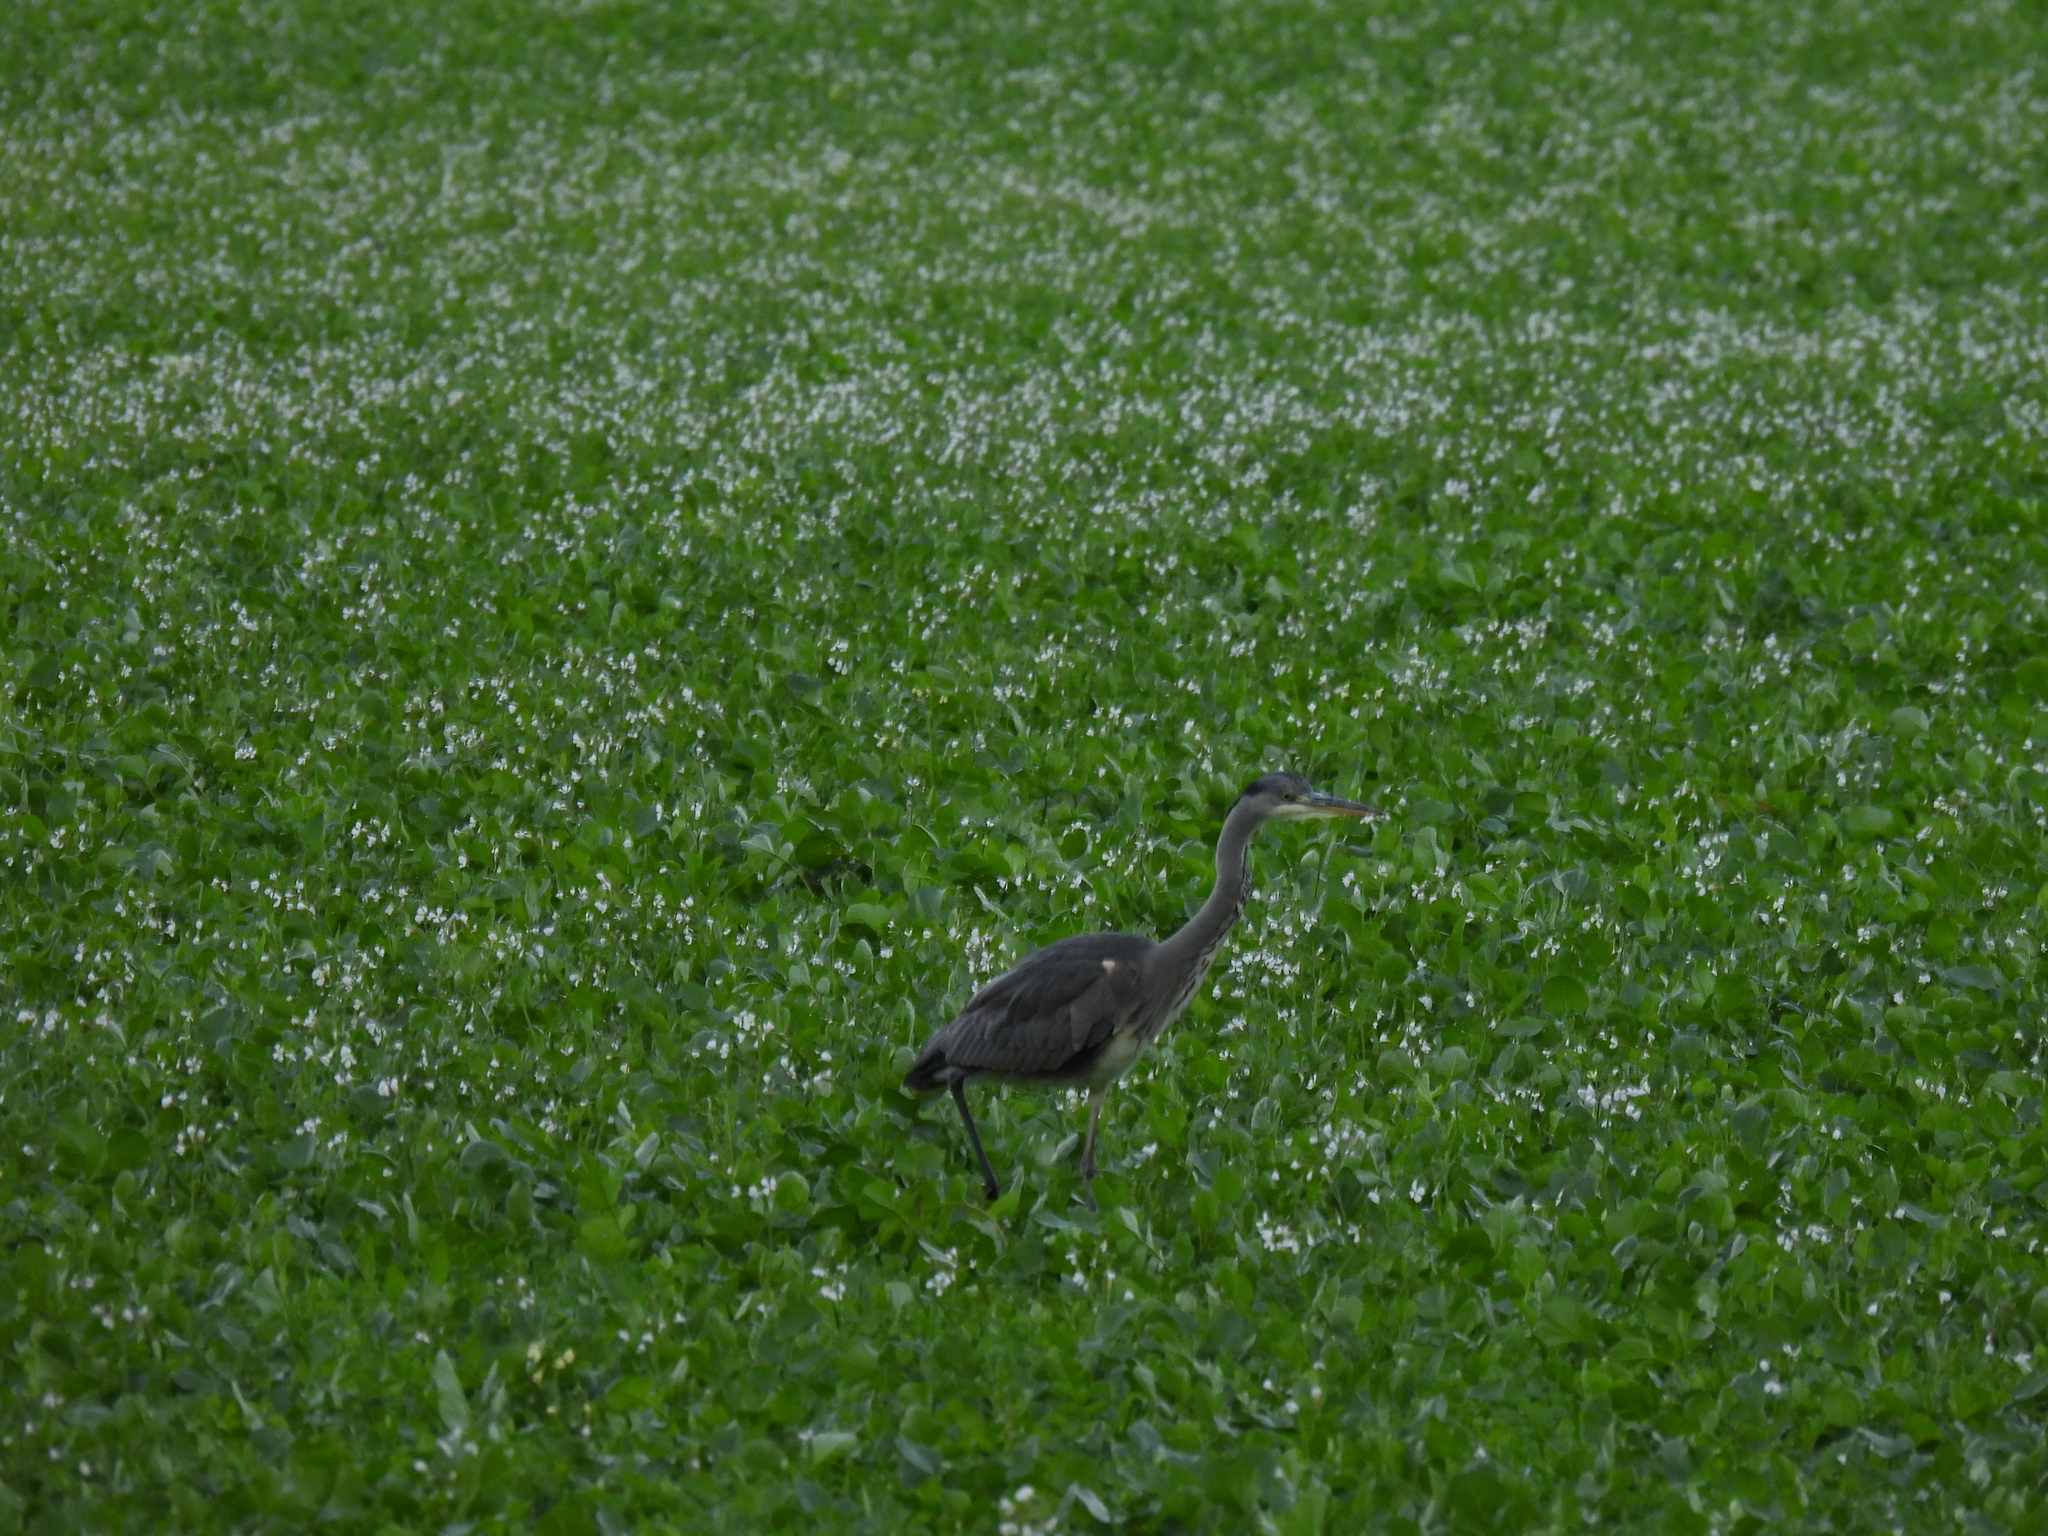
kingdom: Animalia
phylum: Chordata
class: Aves
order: Pelecaniformes
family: Ardeidae
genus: Ardea
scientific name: Ardea cinerea
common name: Grey heron
